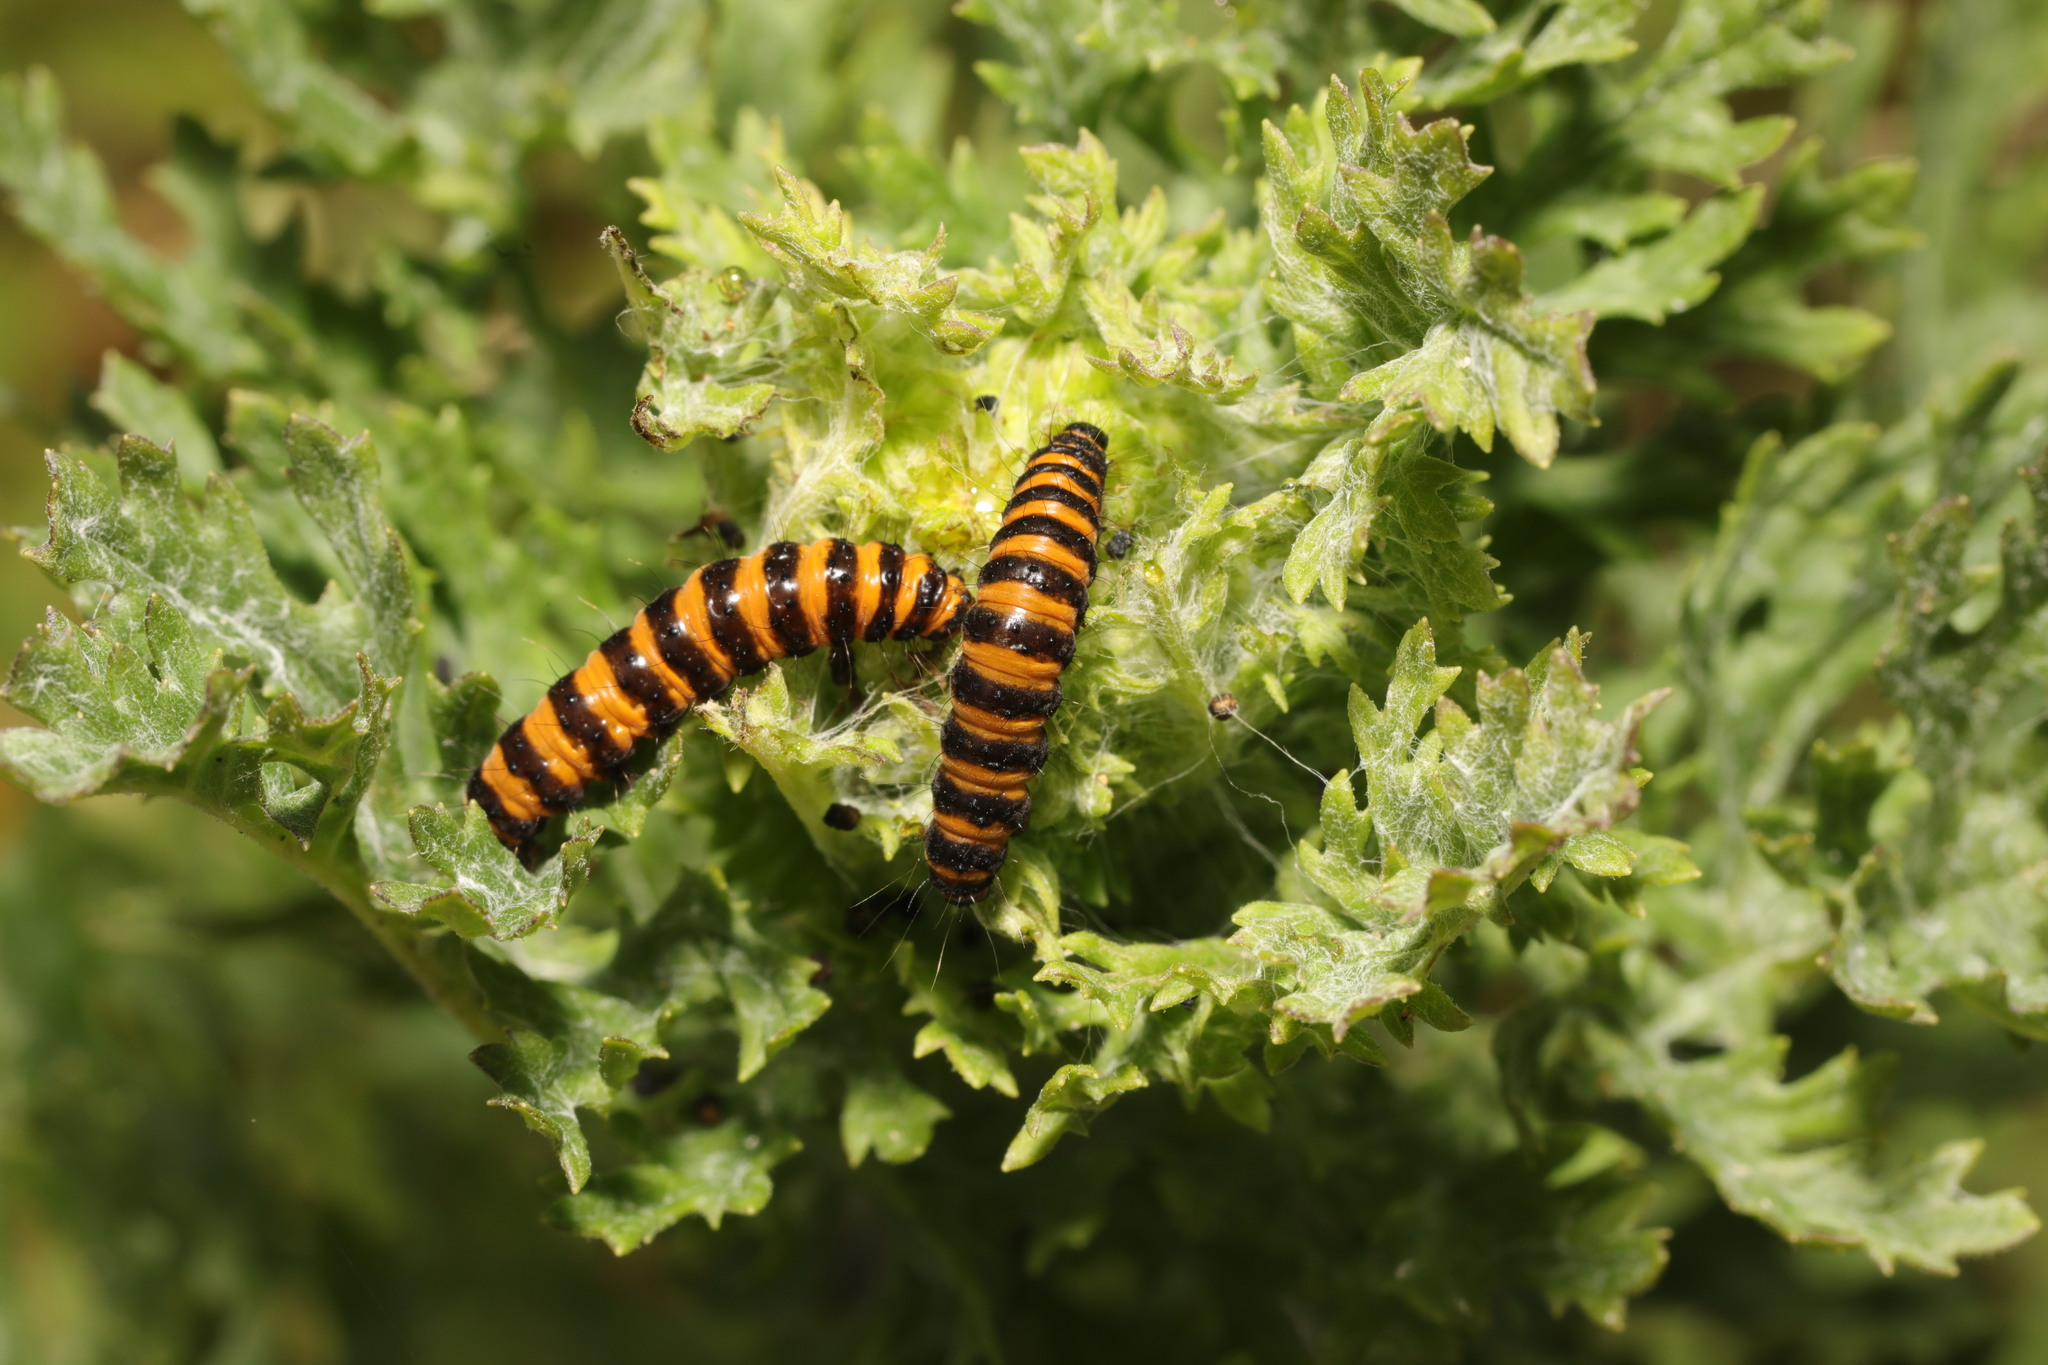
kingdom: Animalia
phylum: Arthropoda
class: Insecta
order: Lepidoptera
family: Erebidae
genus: Tyria
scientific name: Tyria jacobaeae
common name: Cinnabar
